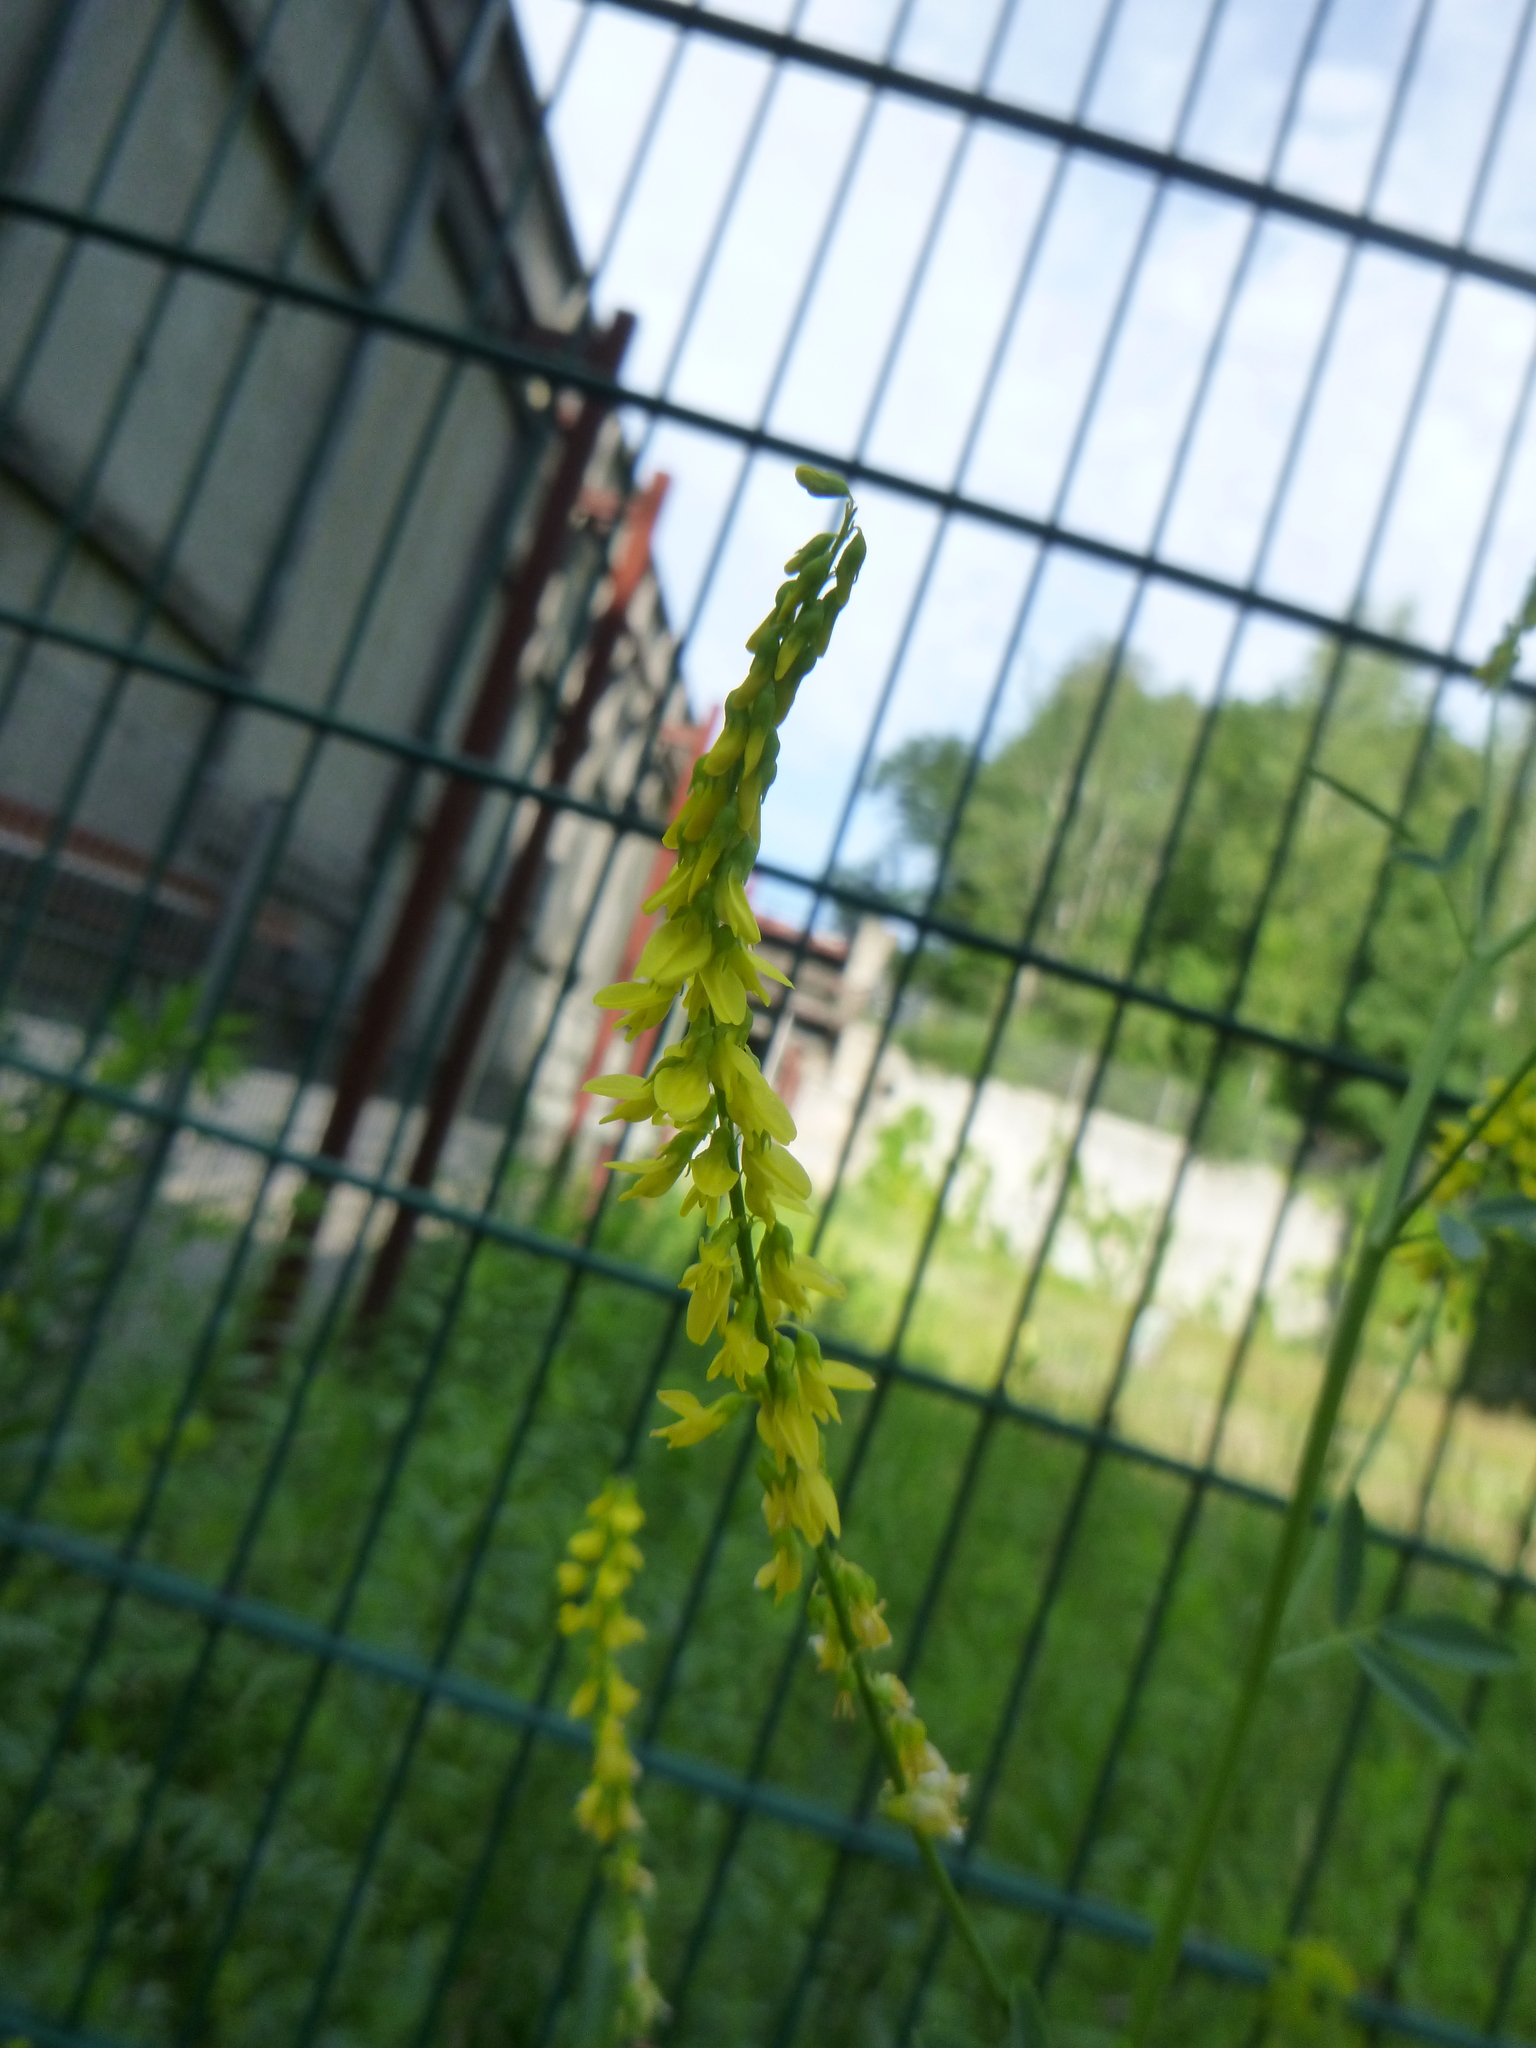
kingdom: Plantae
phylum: Tracheophyta
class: Magnoliopsida
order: Fabales
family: Fabaceae
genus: Melilotus
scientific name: Melilotus officinalis
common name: Sweetclover
